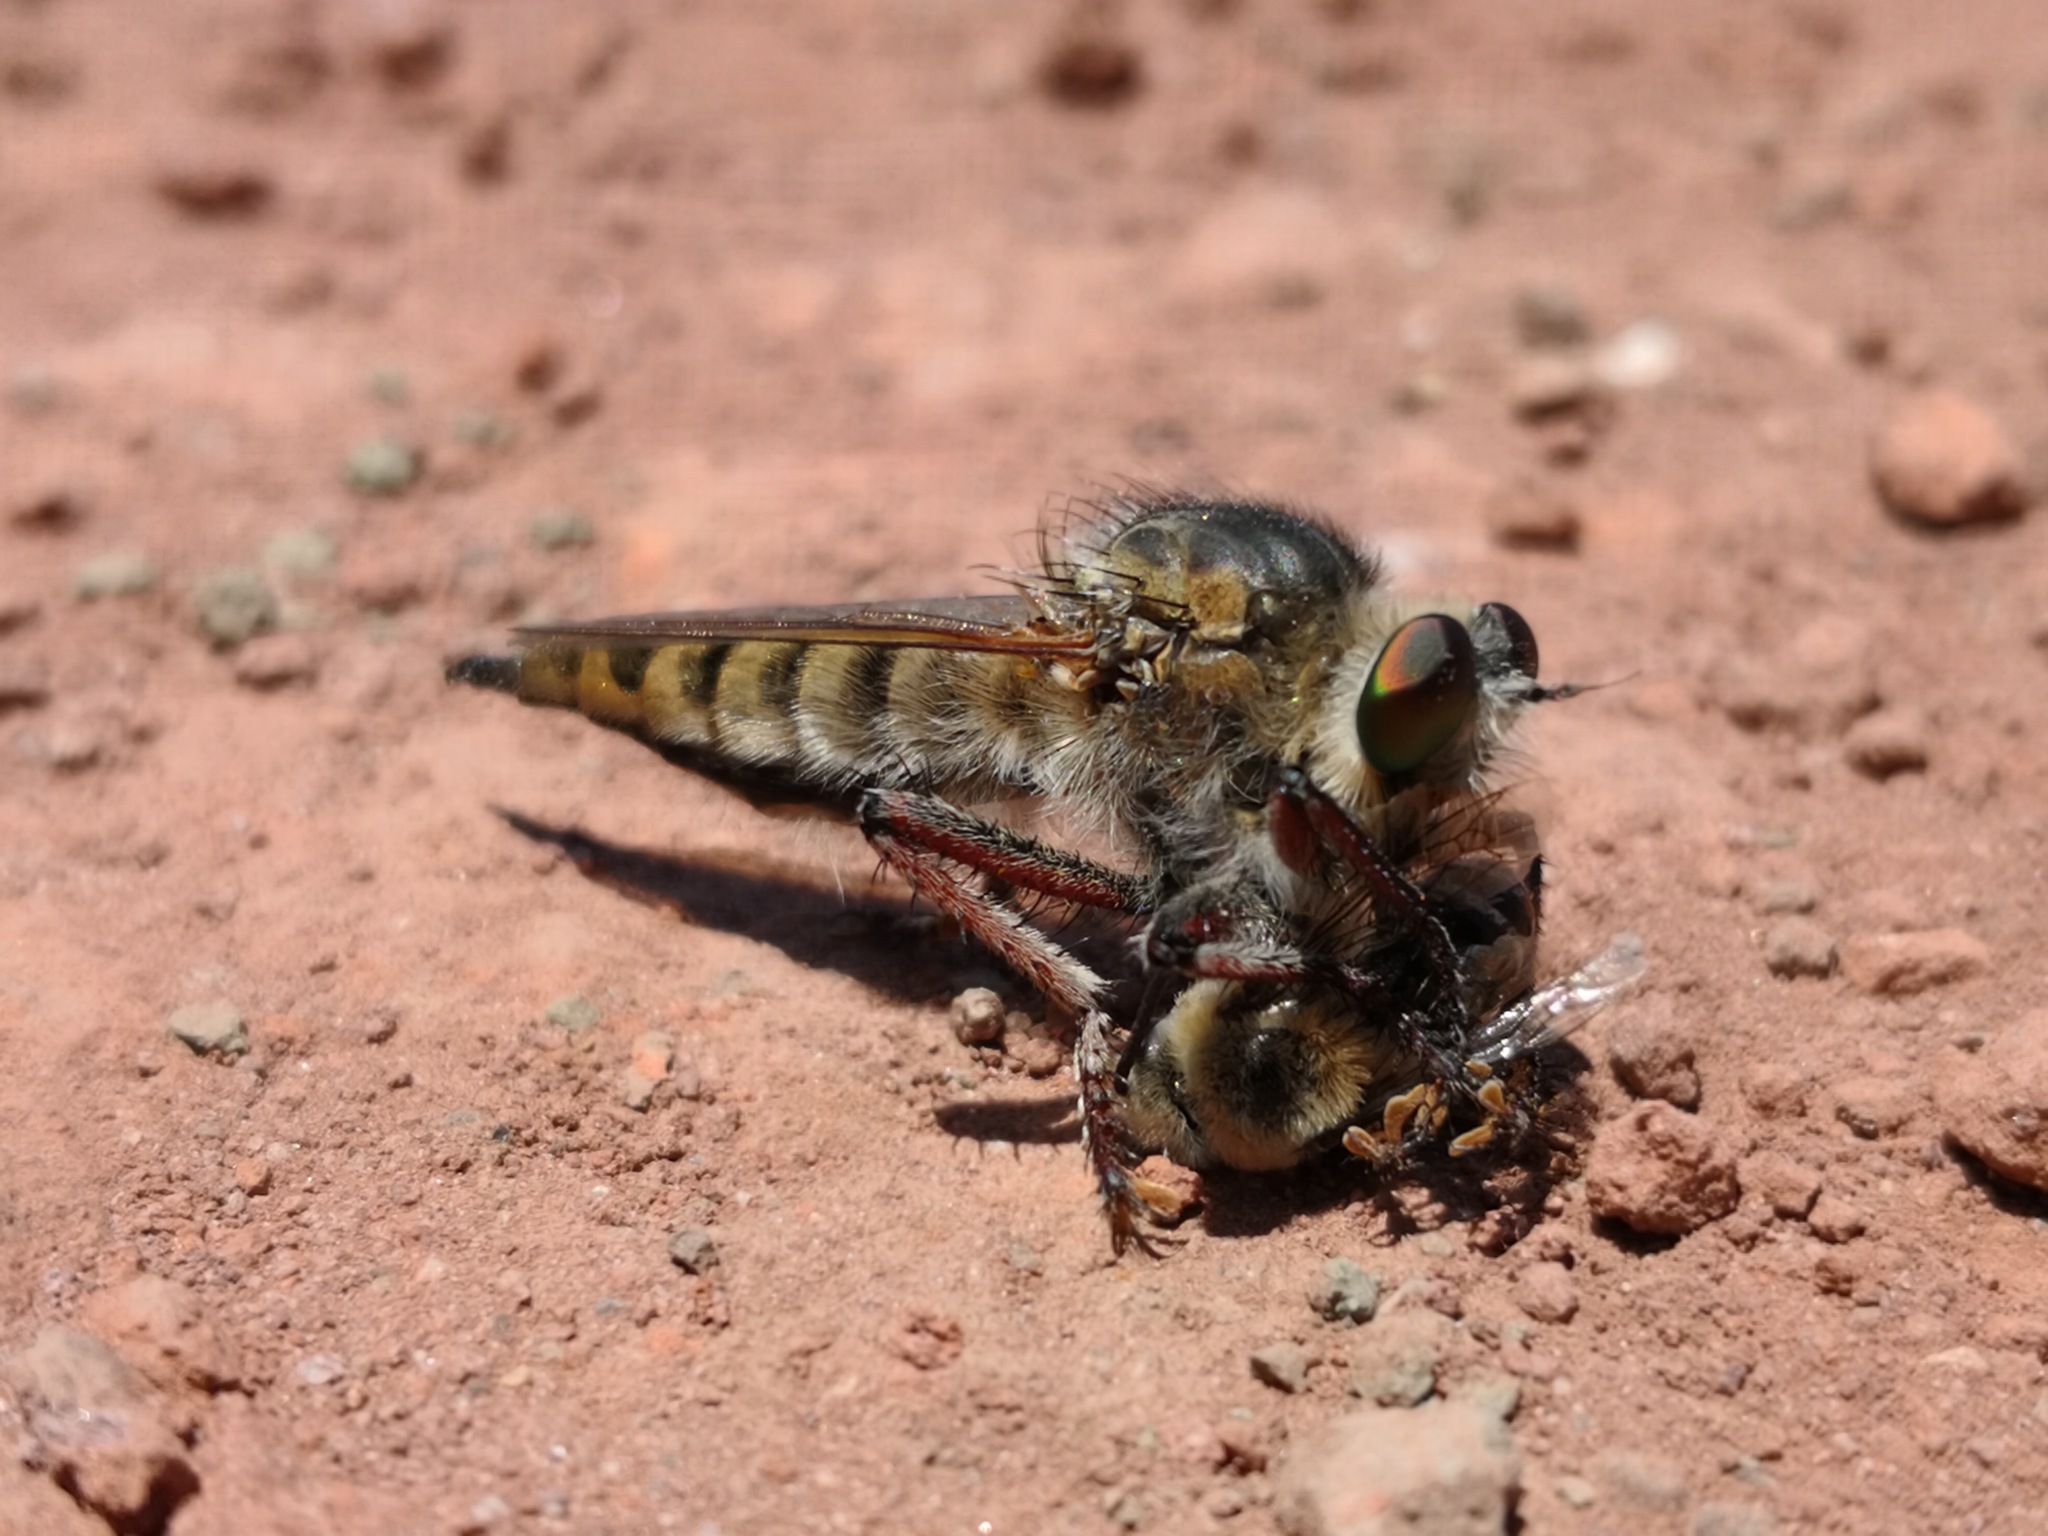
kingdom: Animalia
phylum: Arthropoda
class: Insecta
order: Diptera
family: Asilidae
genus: Promachus
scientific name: Promachus latitarsatus
